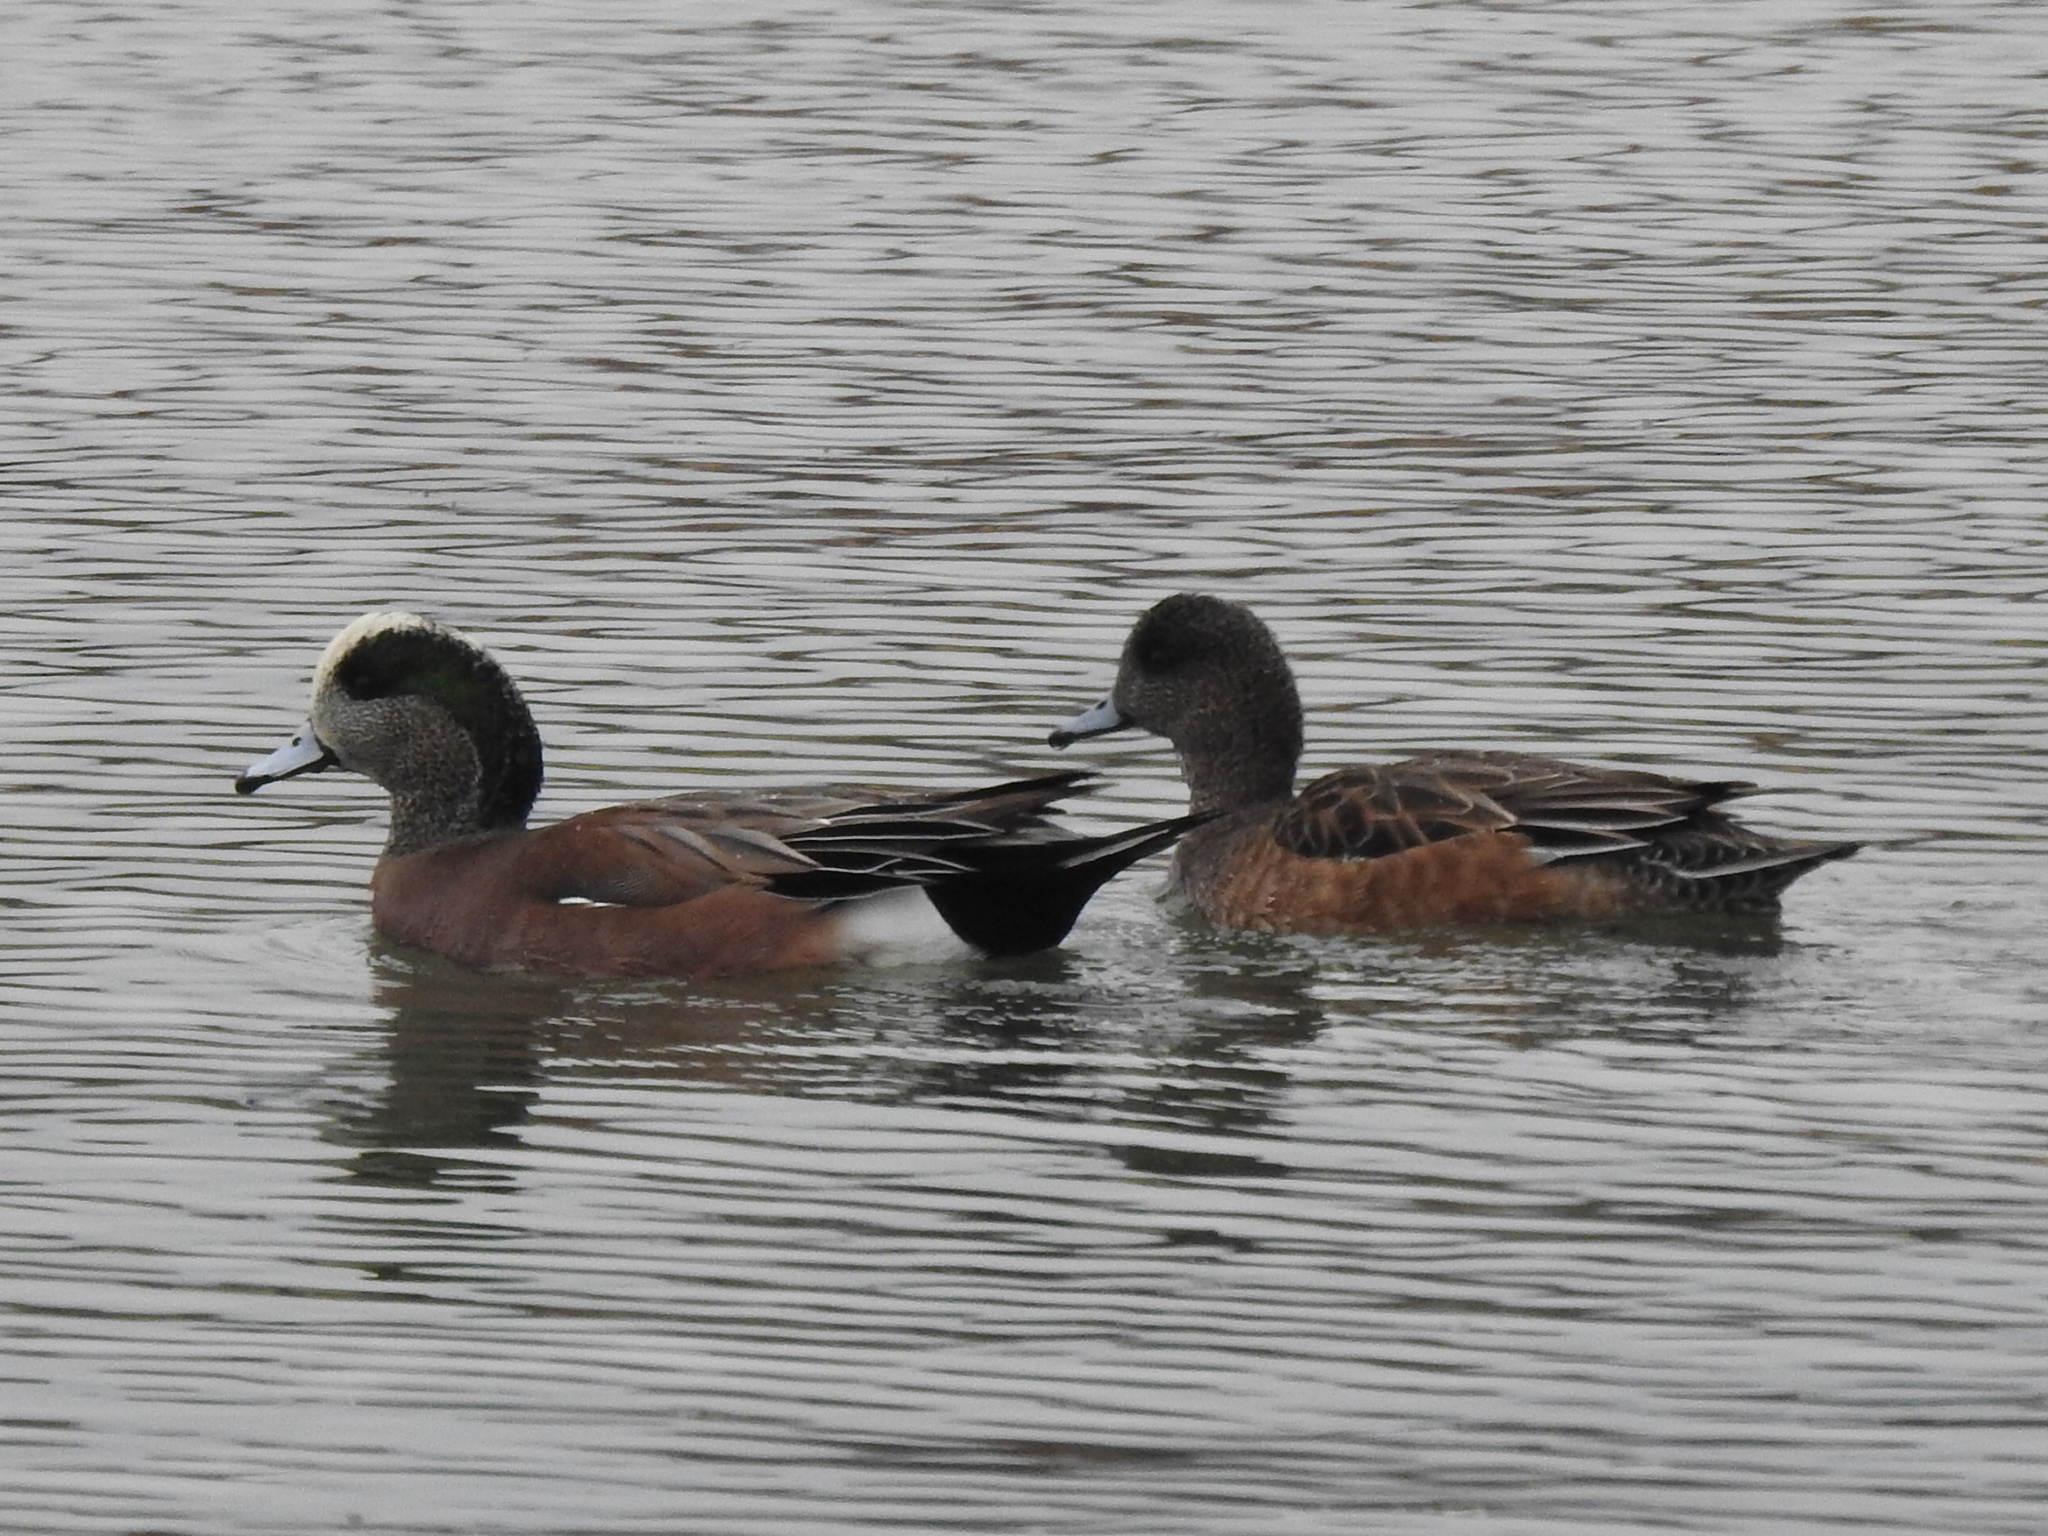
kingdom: Animalia
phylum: Chordata
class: Aves
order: Anseriformes
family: Anatidae
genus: Mareca
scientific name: Mareca americana
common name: American wigeon
